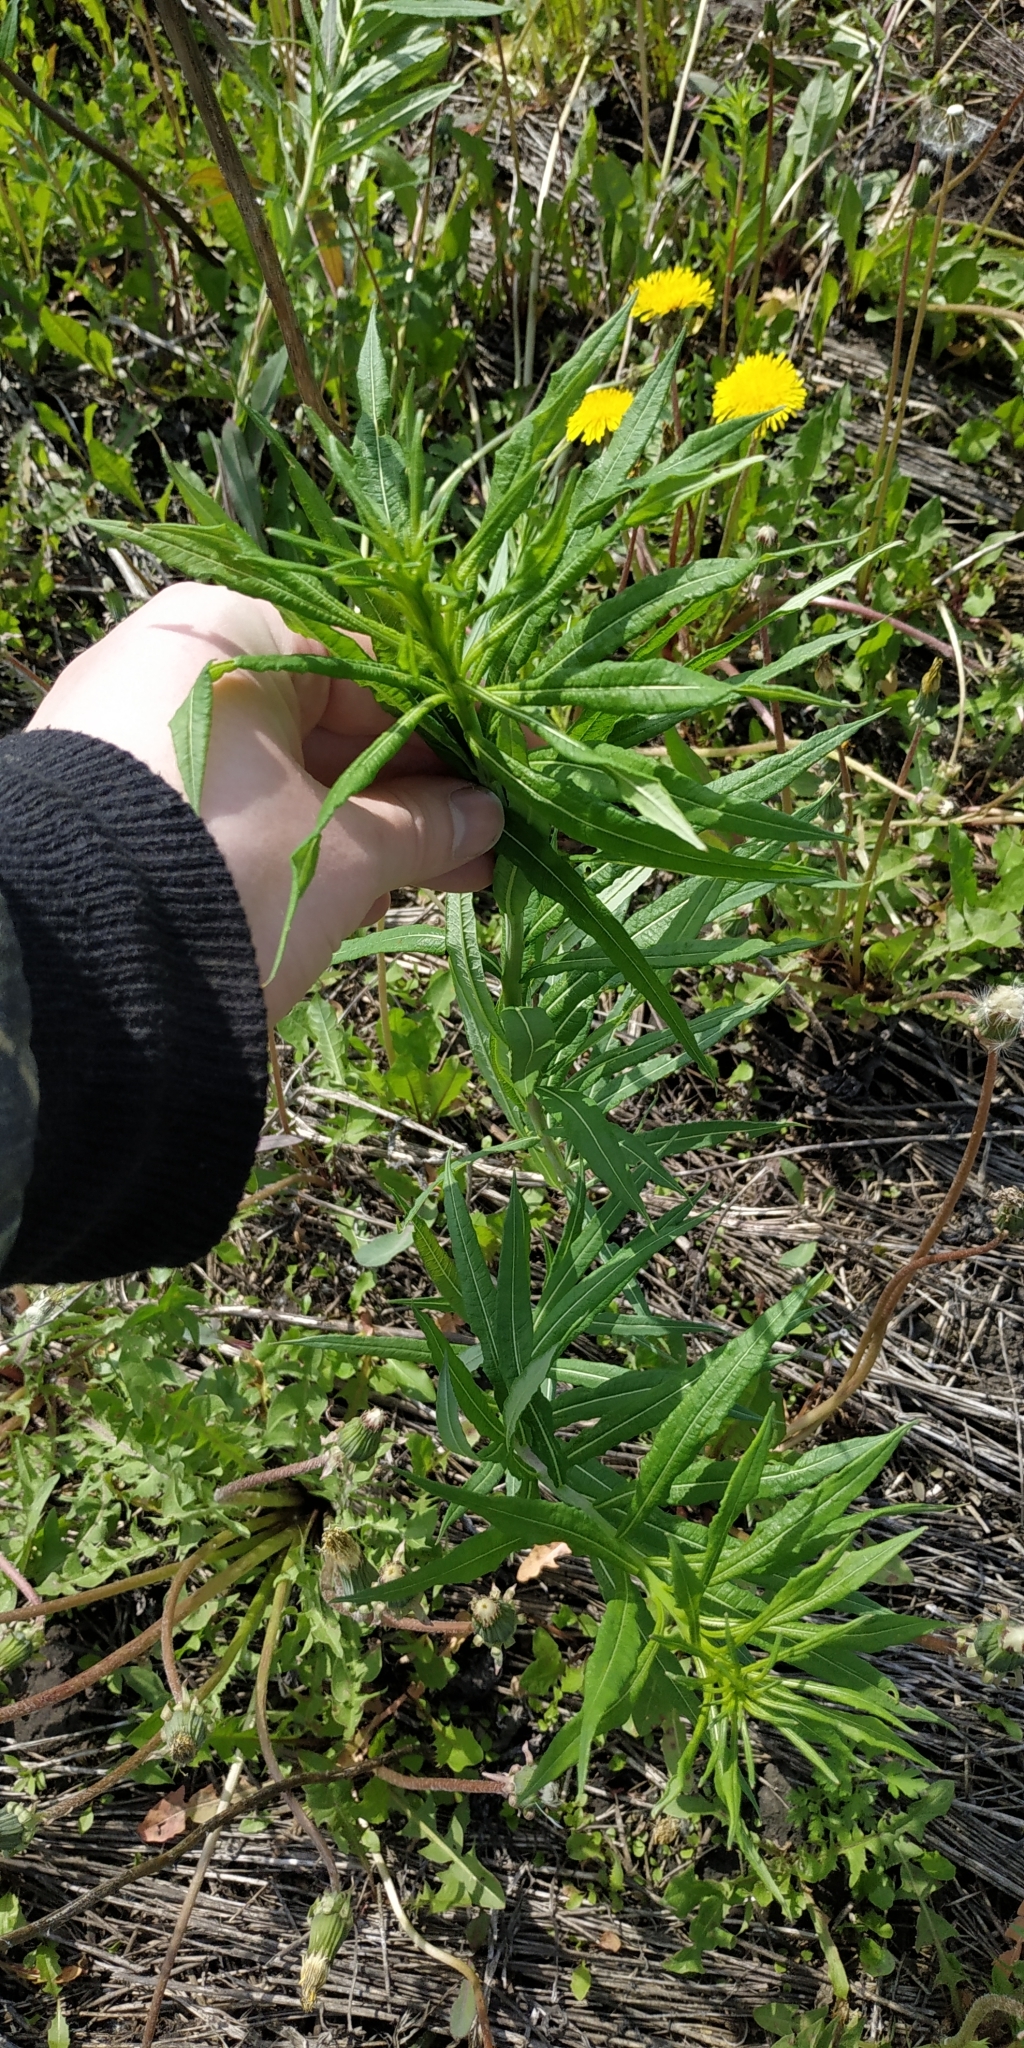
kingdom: Plantae
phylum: Tracheophyta
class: Magnoliopsida
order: Myrtales
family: Onagraceae
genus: Chamaenerion
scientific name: Chamaenerion angustifolium
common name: Fireweed
